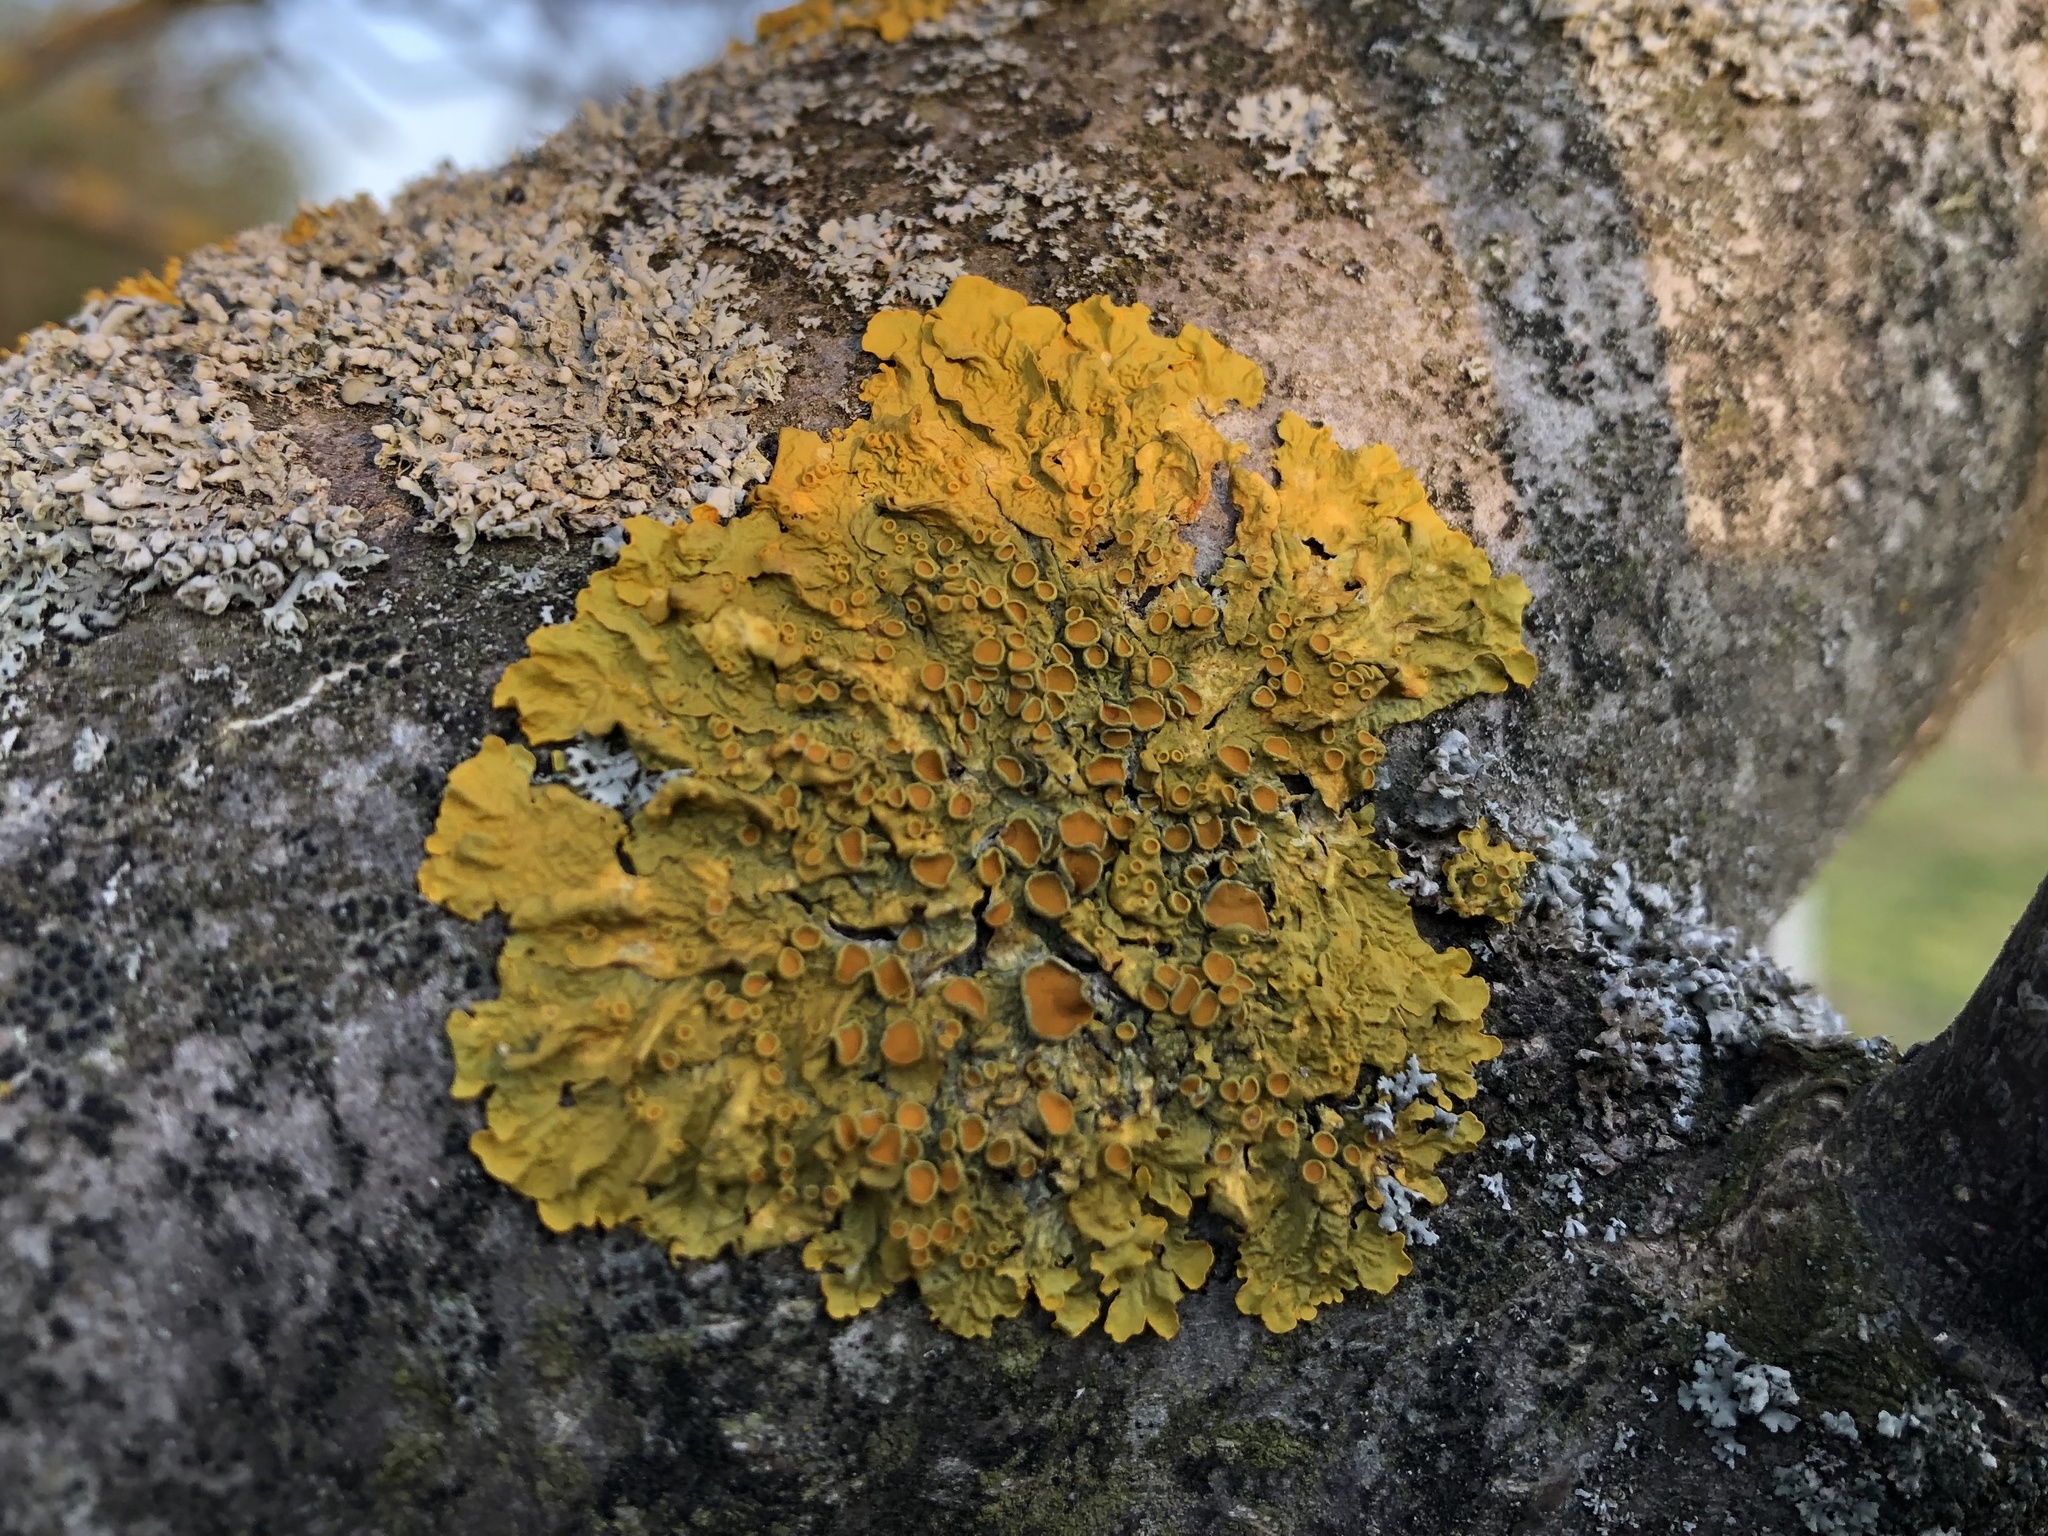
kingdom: Fungi
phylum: Ascomycota
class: Lecanoromycetes
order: Teloschistales
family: Teloschistaceae
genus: Xanthoria
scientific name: Xanthoria parietina
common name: Common orange lichen
